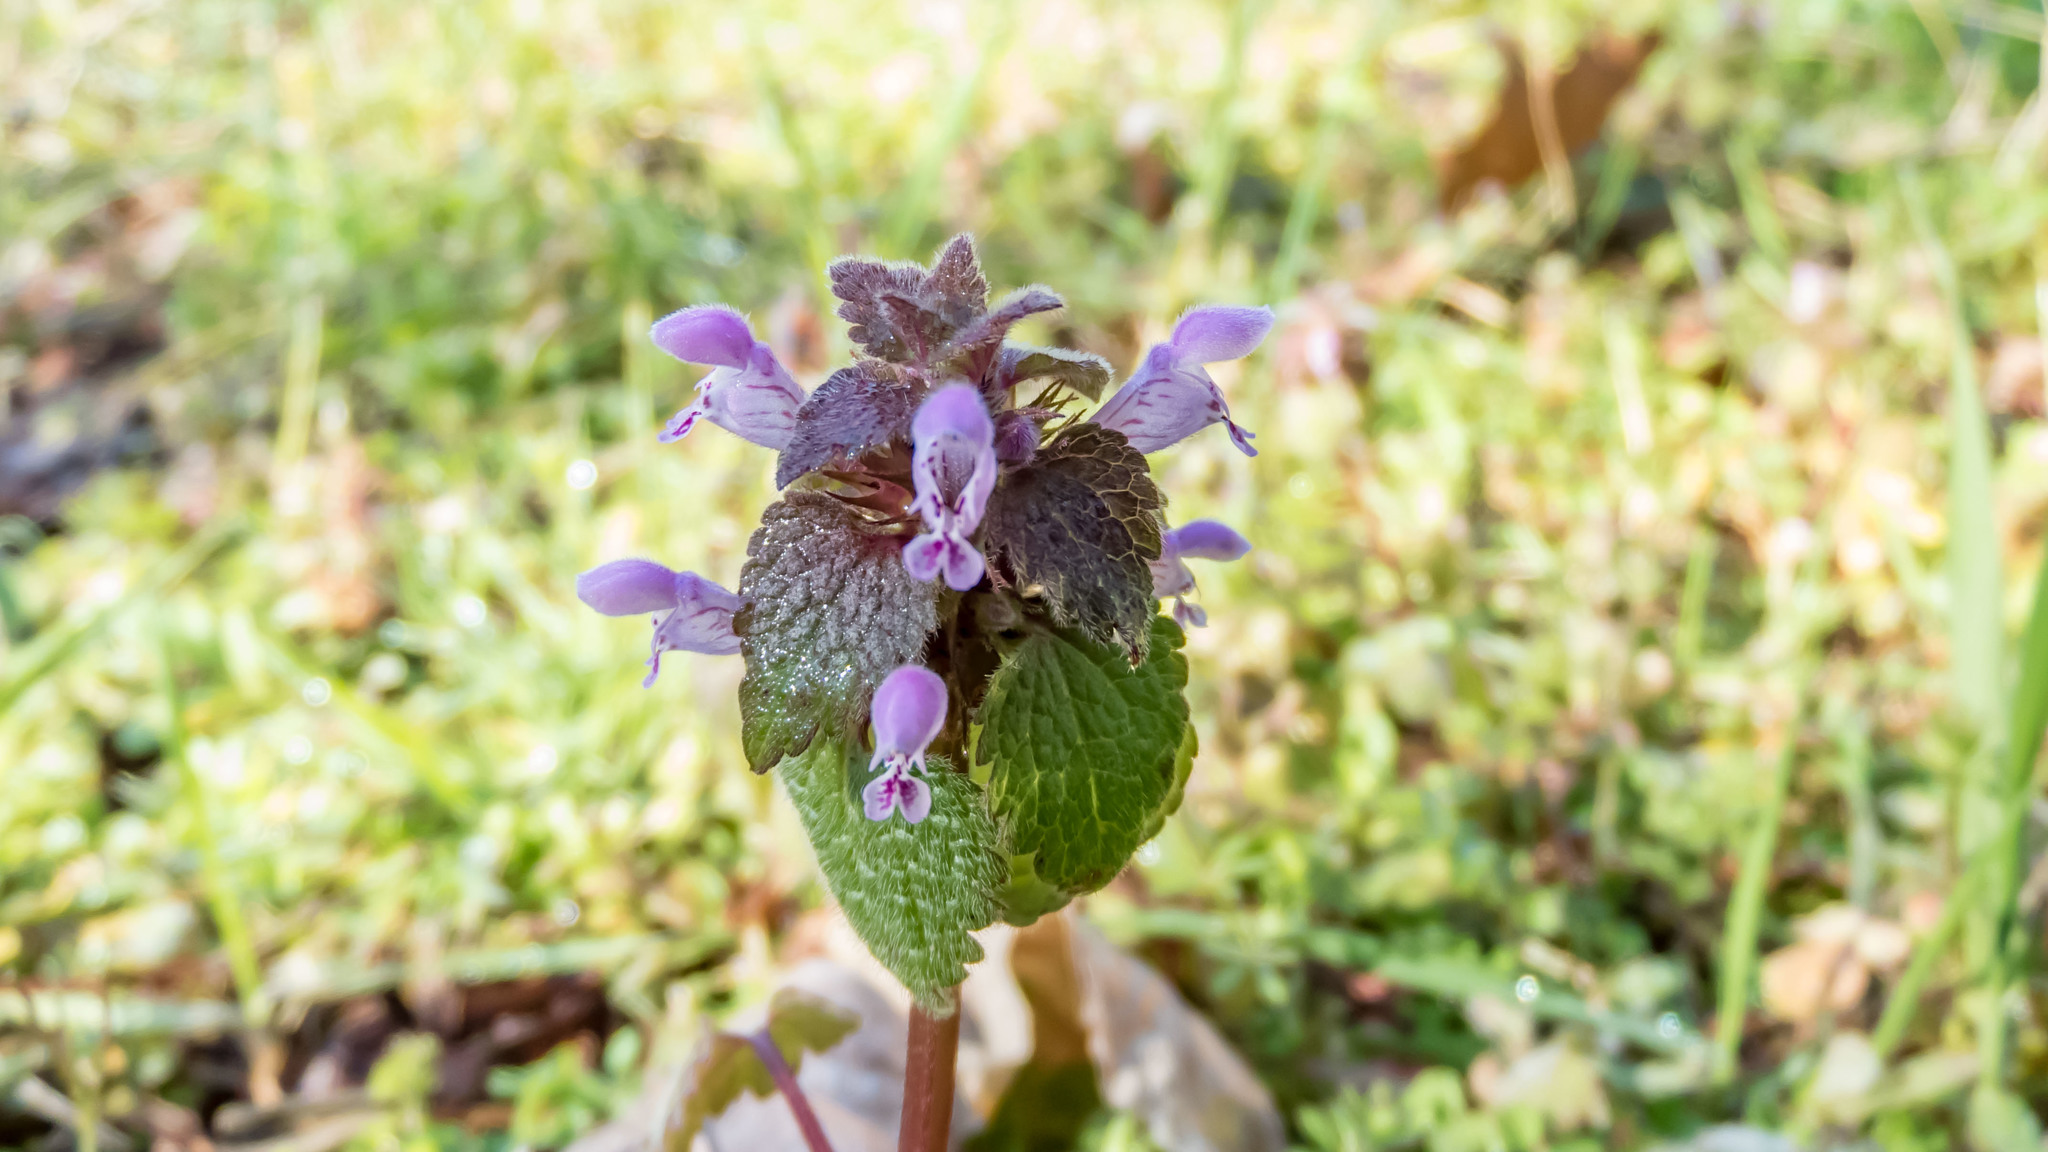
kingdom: Plantae
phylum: Tracheophyta
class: Magnoliopsida
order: Lamiales
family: Lamiaceae
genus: Lamium
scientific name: Lamium purpureum
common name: Red dead-nettle
